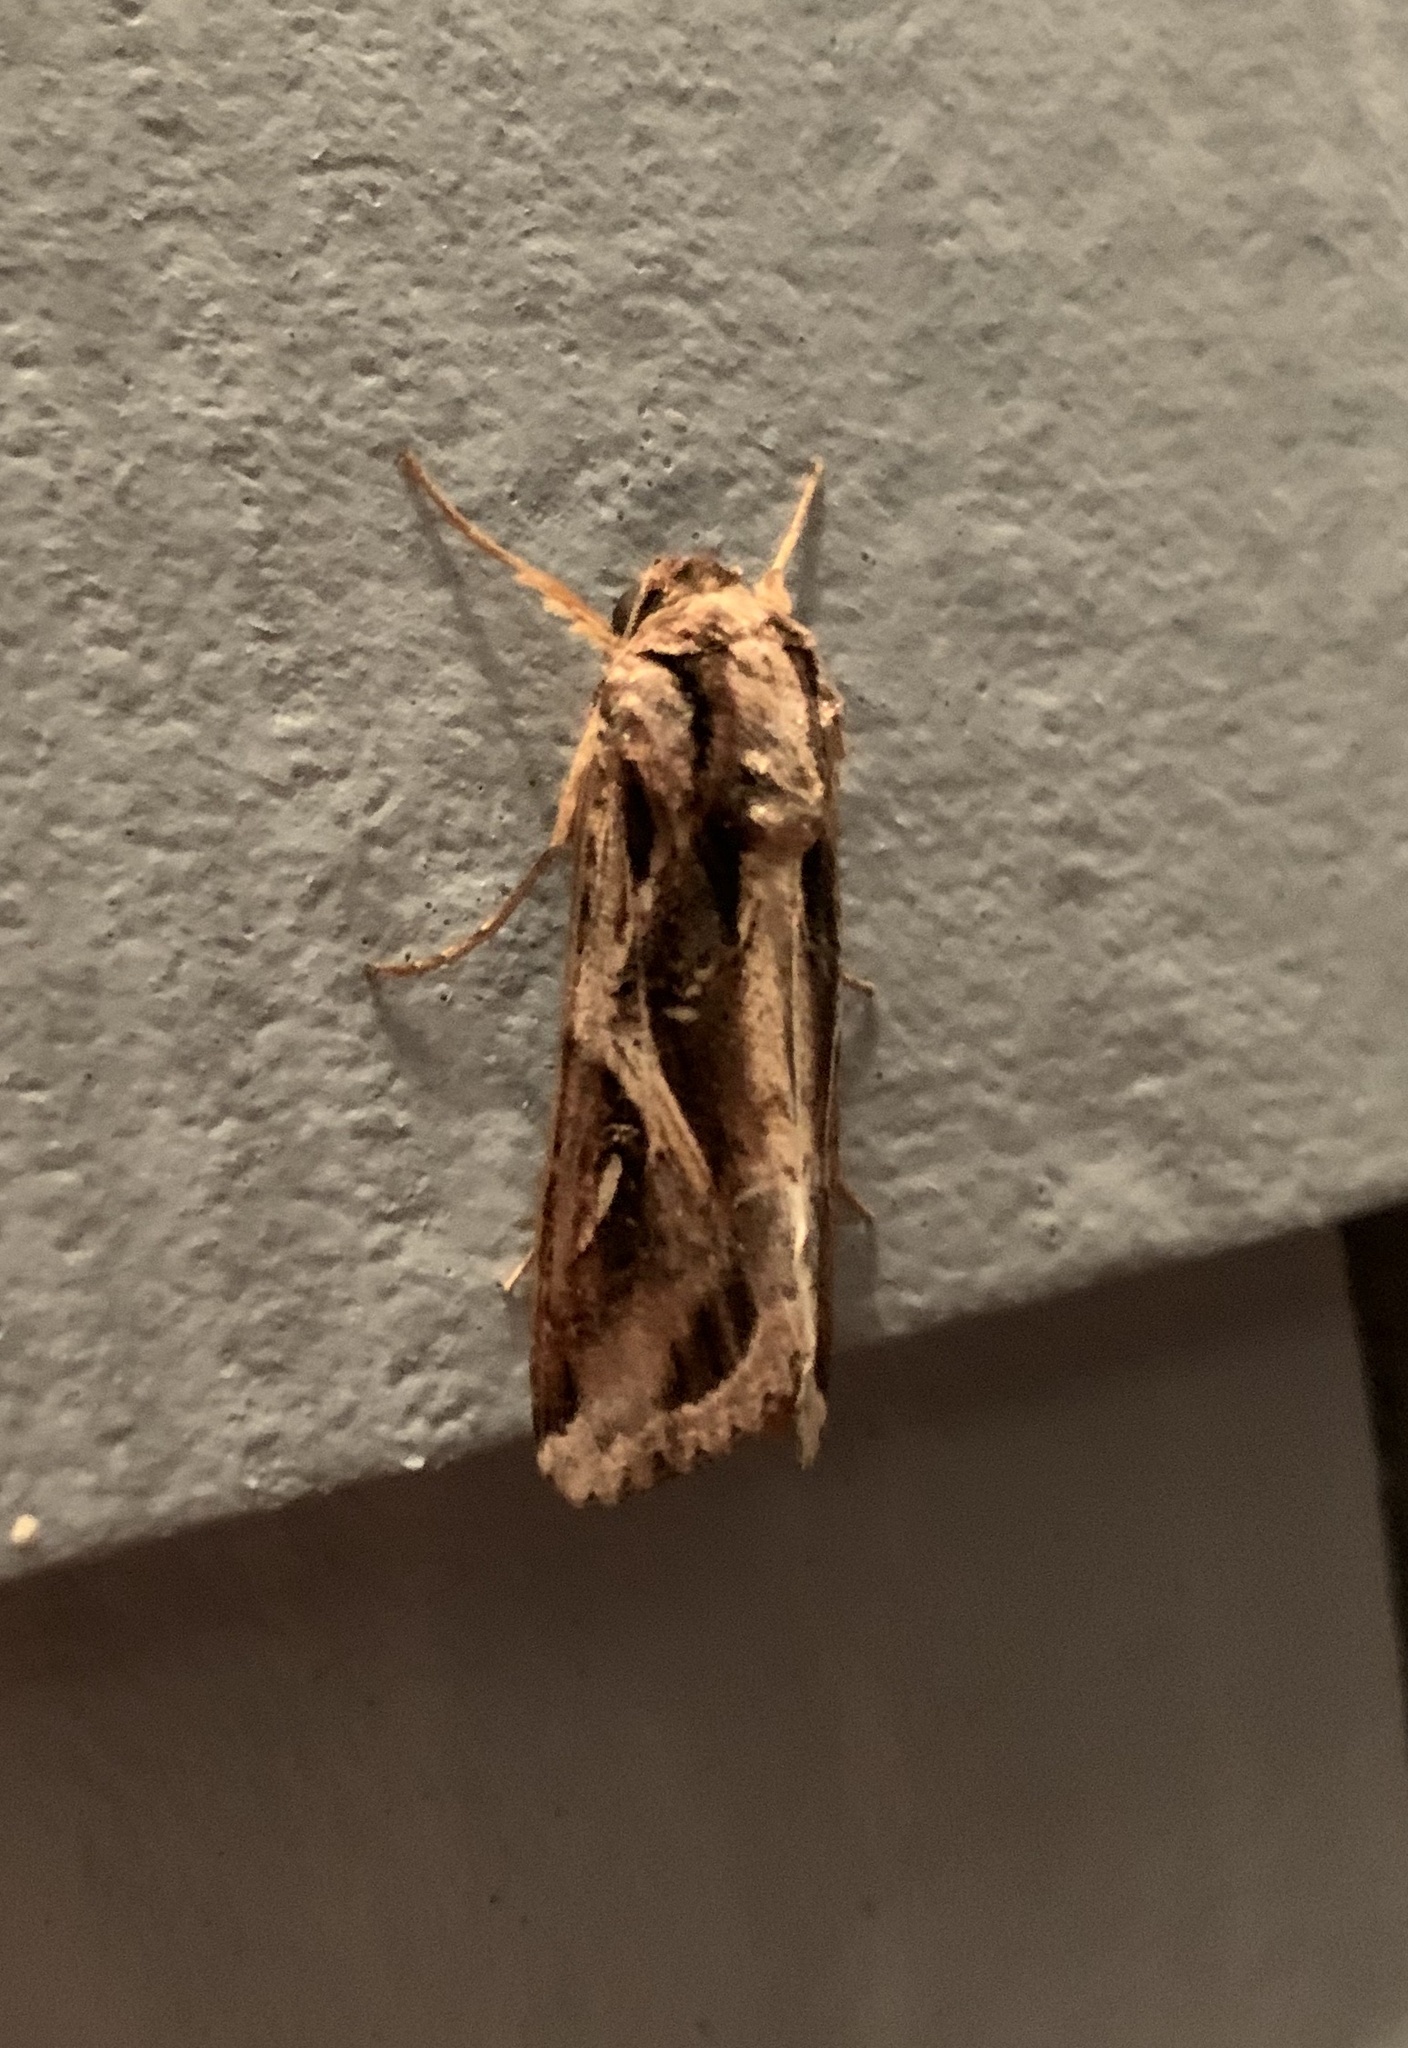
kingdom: Animalia
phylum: Arthropoda
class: Insecta
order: Lepidoptera
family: Noctuidae
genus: Spodoptera
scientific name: Spodoptera dolichos
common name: Sweetpotato armyworm
